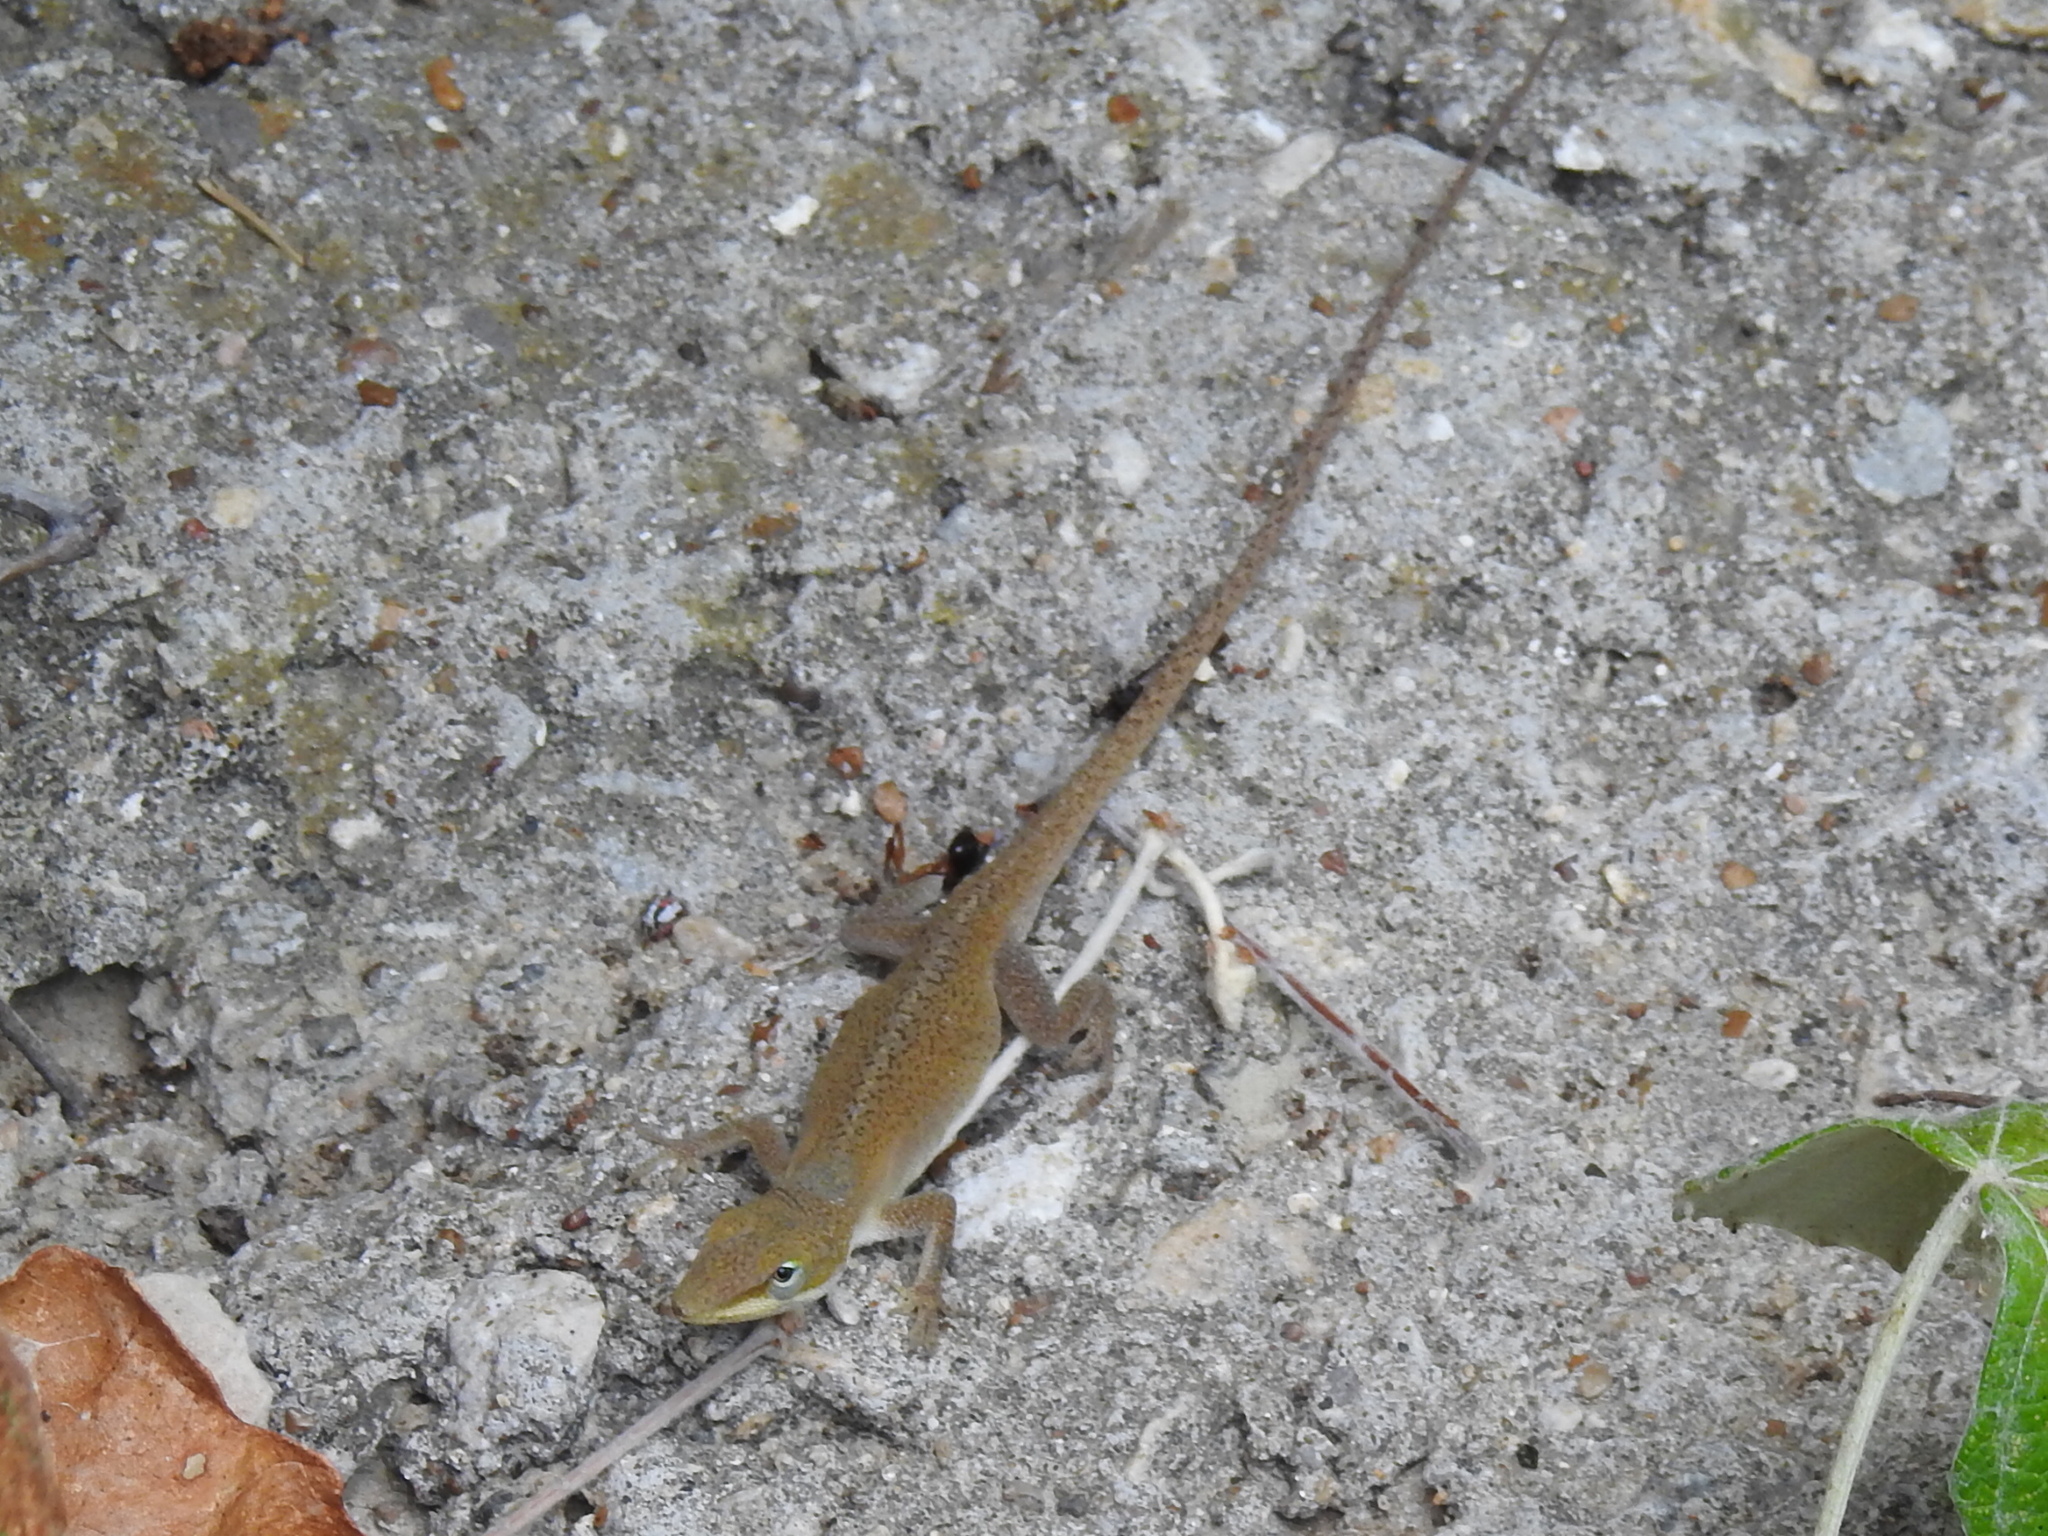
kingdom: Animalia
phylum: Chordata
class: Squamata
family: Dactyloidae
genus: Anolis
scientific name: Anolis carolinensis
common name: Green anole
